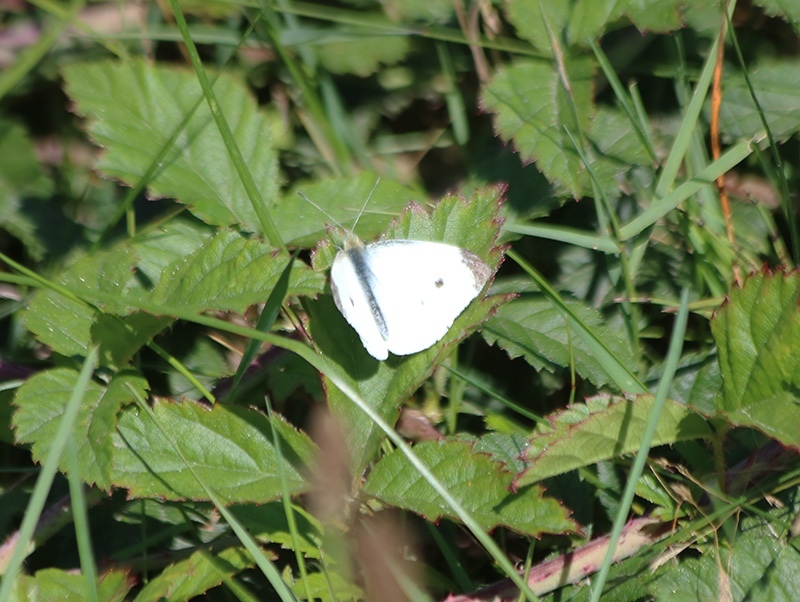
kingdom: Animalia
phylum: Arthropoda
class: Insecta
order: Lepidoptera
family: Pieridae
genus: Pieris
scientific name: Pieris rapae
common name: Small white
